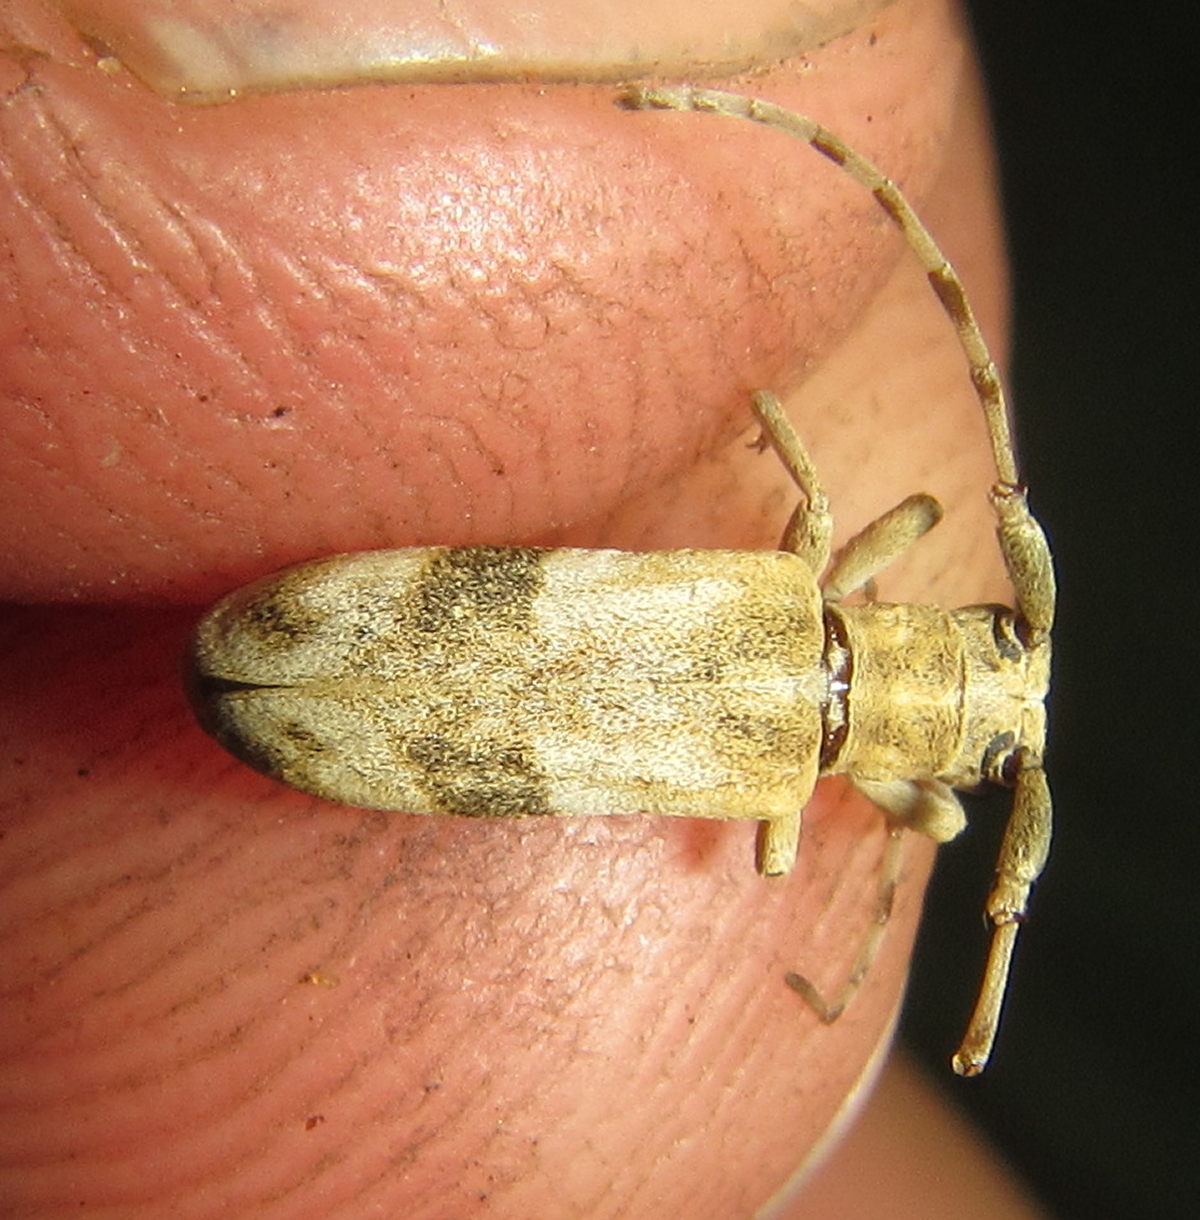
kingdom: Animalia
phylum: Arthropoda
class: Insecta
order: Coleoptera
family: Cerambycidae
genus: Eunidia
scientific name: Eunidia vagevittata
